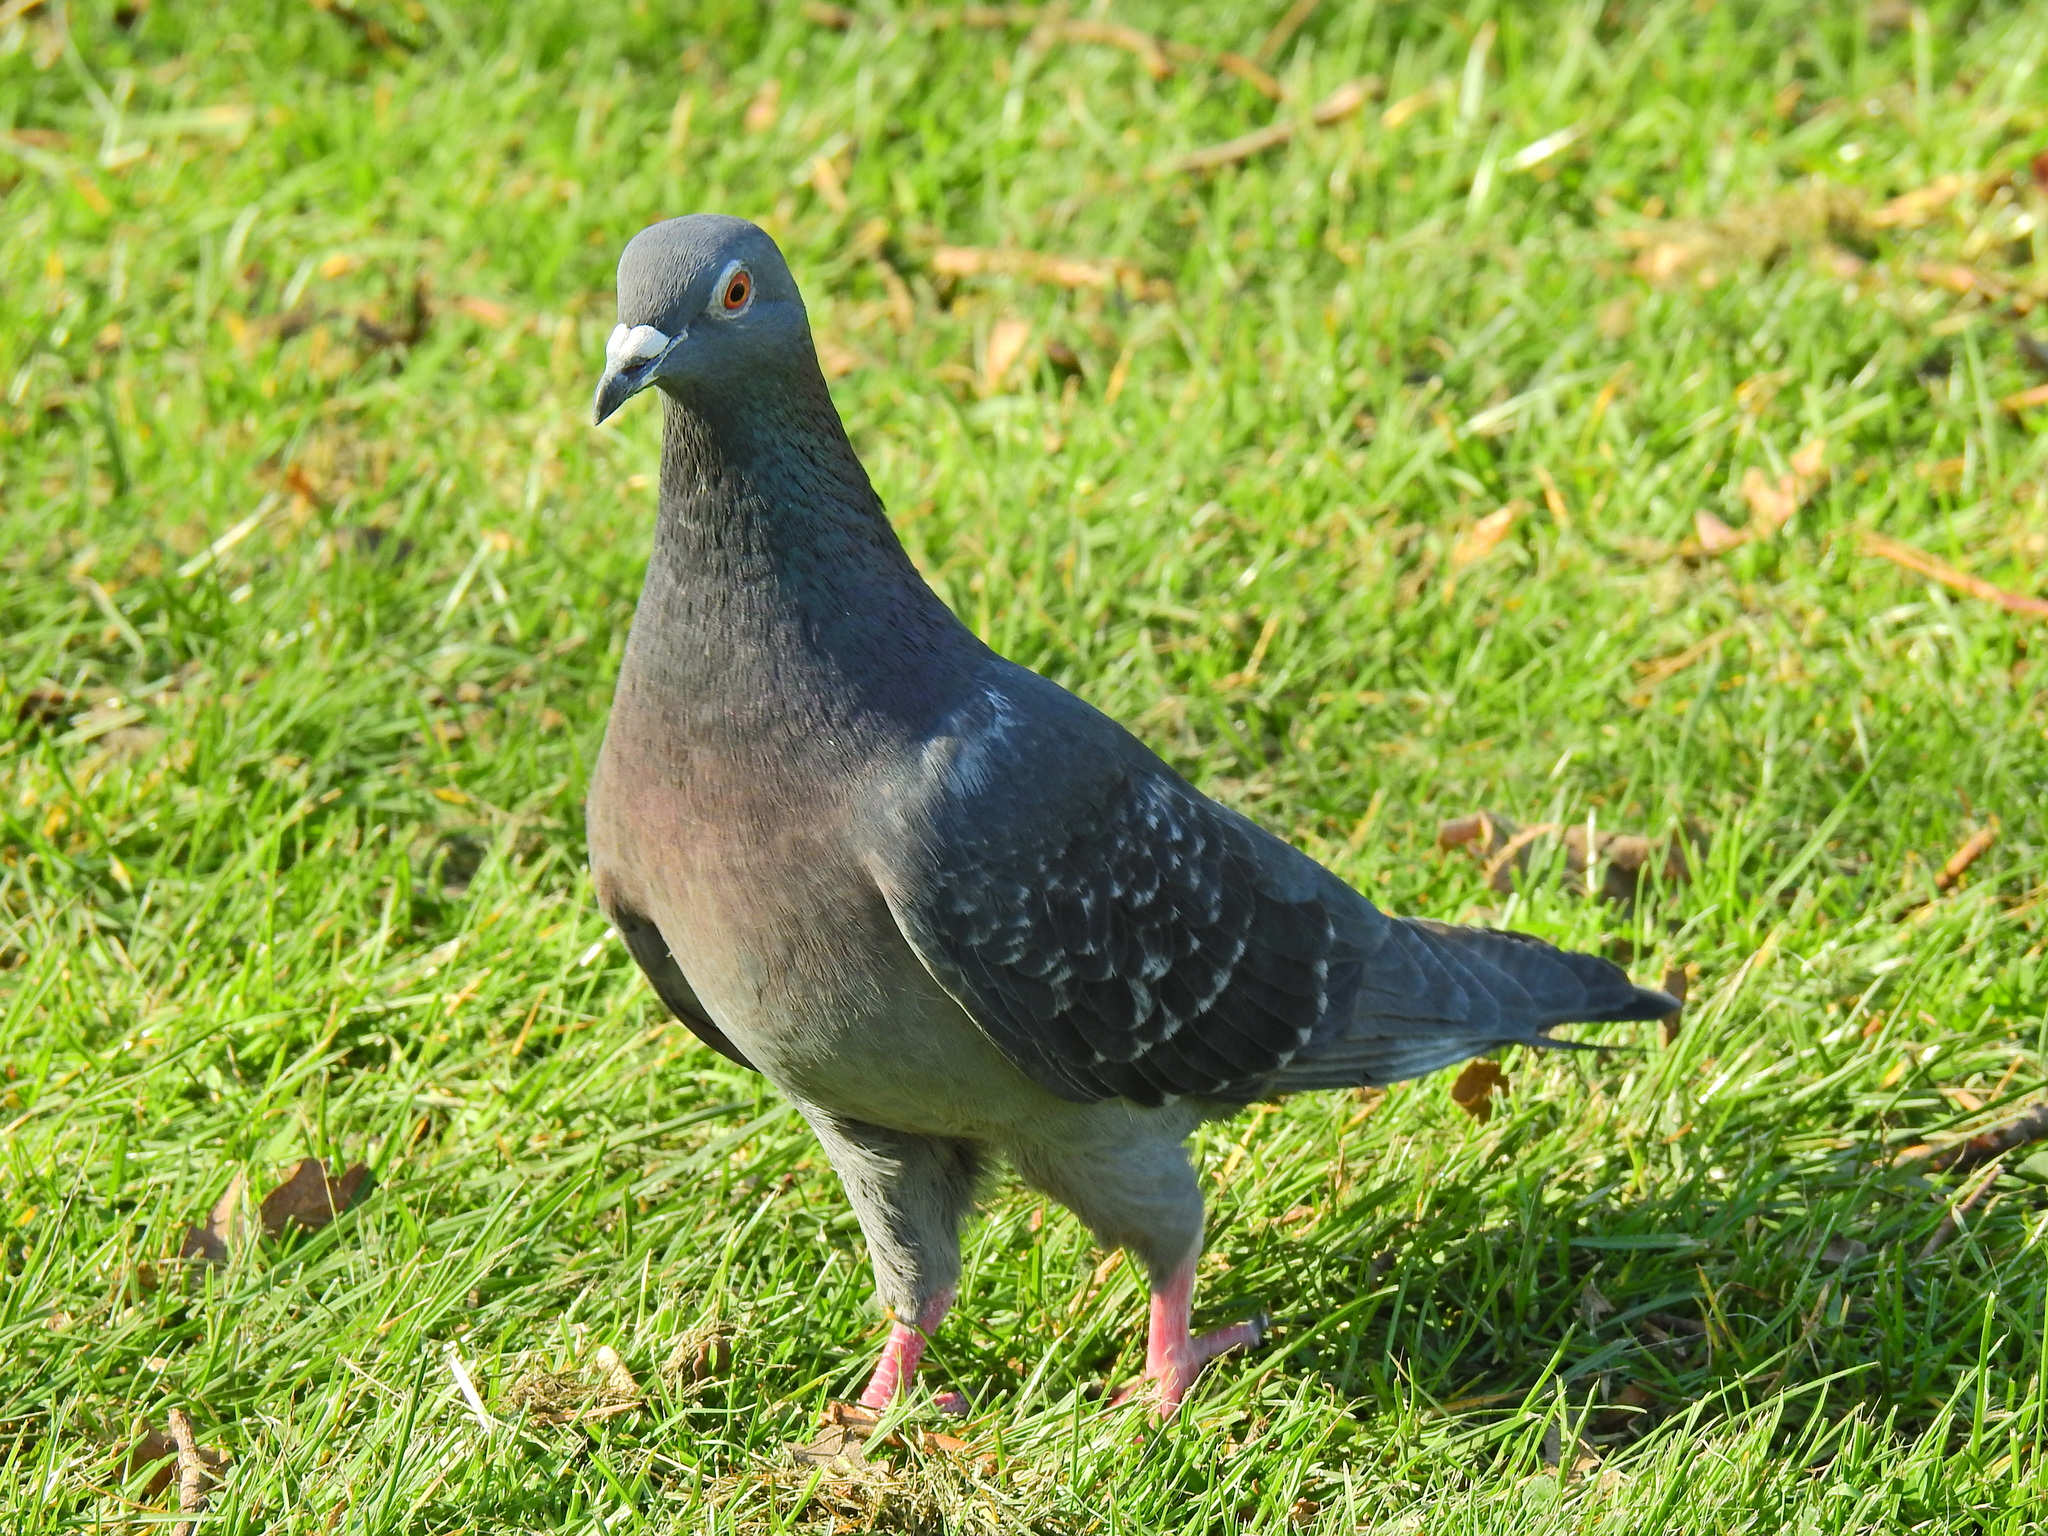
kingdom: Animalia
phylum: Chordata
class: Aves
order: Columbiformes
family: Columbidae
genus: Columba
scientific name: Columba livia
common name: Rock pigeon
